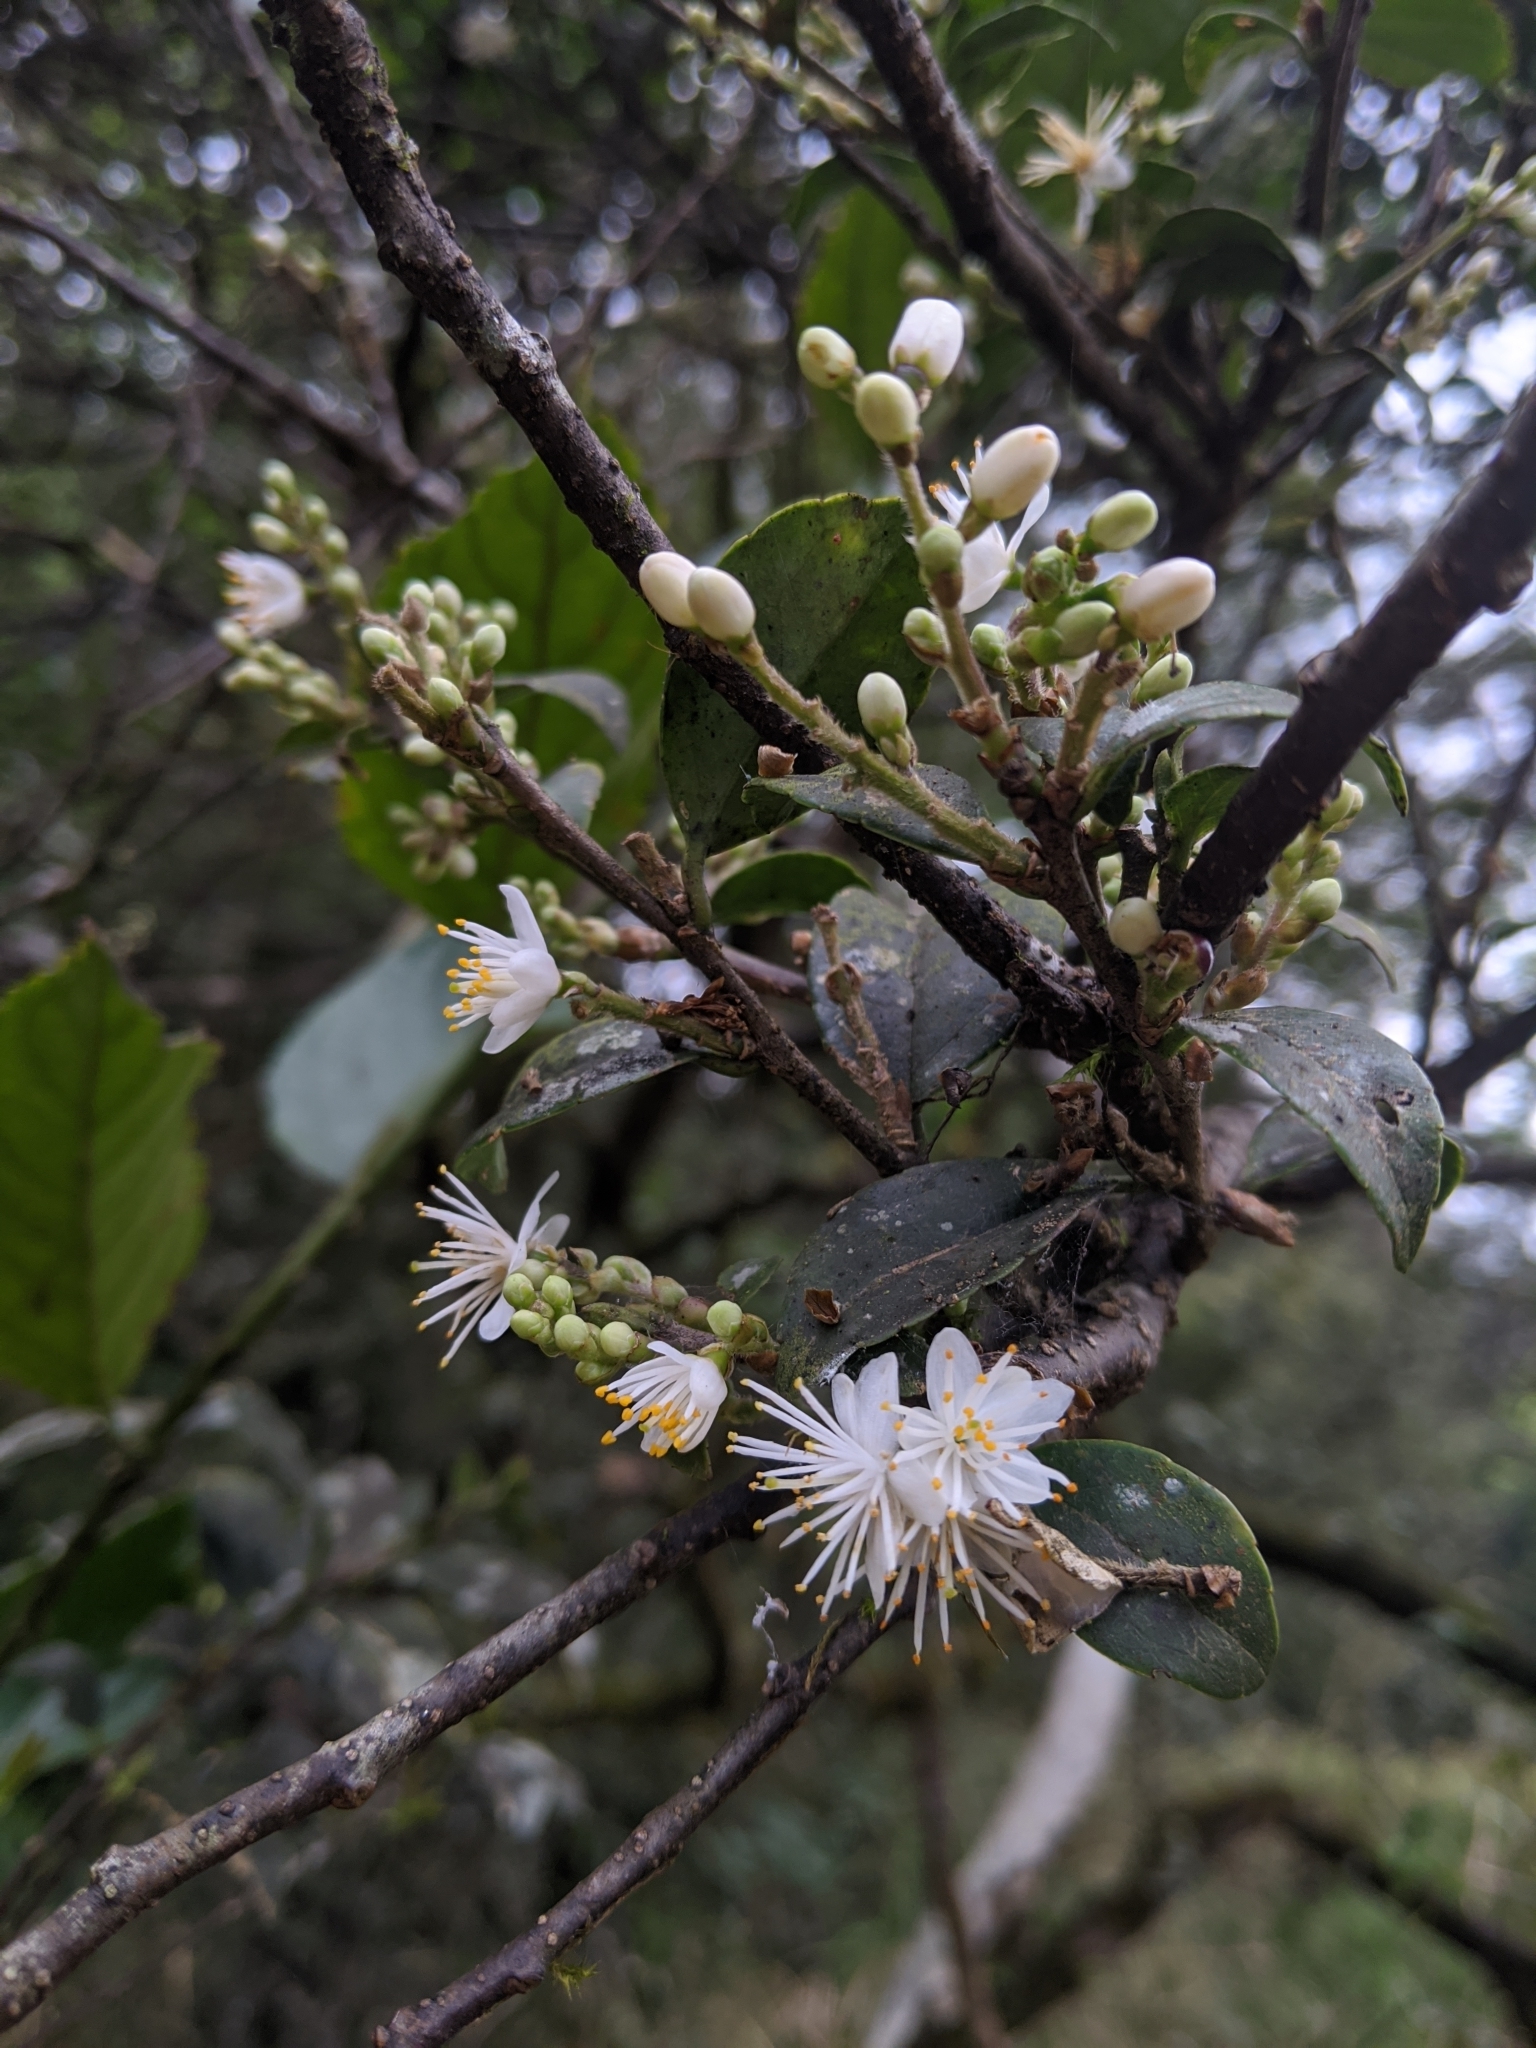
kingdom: Plantae
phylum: Tracheophyta
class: Magnoliopsida
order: Ericales
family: Symplocaceae
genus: Symplocos
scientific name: Symplocos sumuntia
